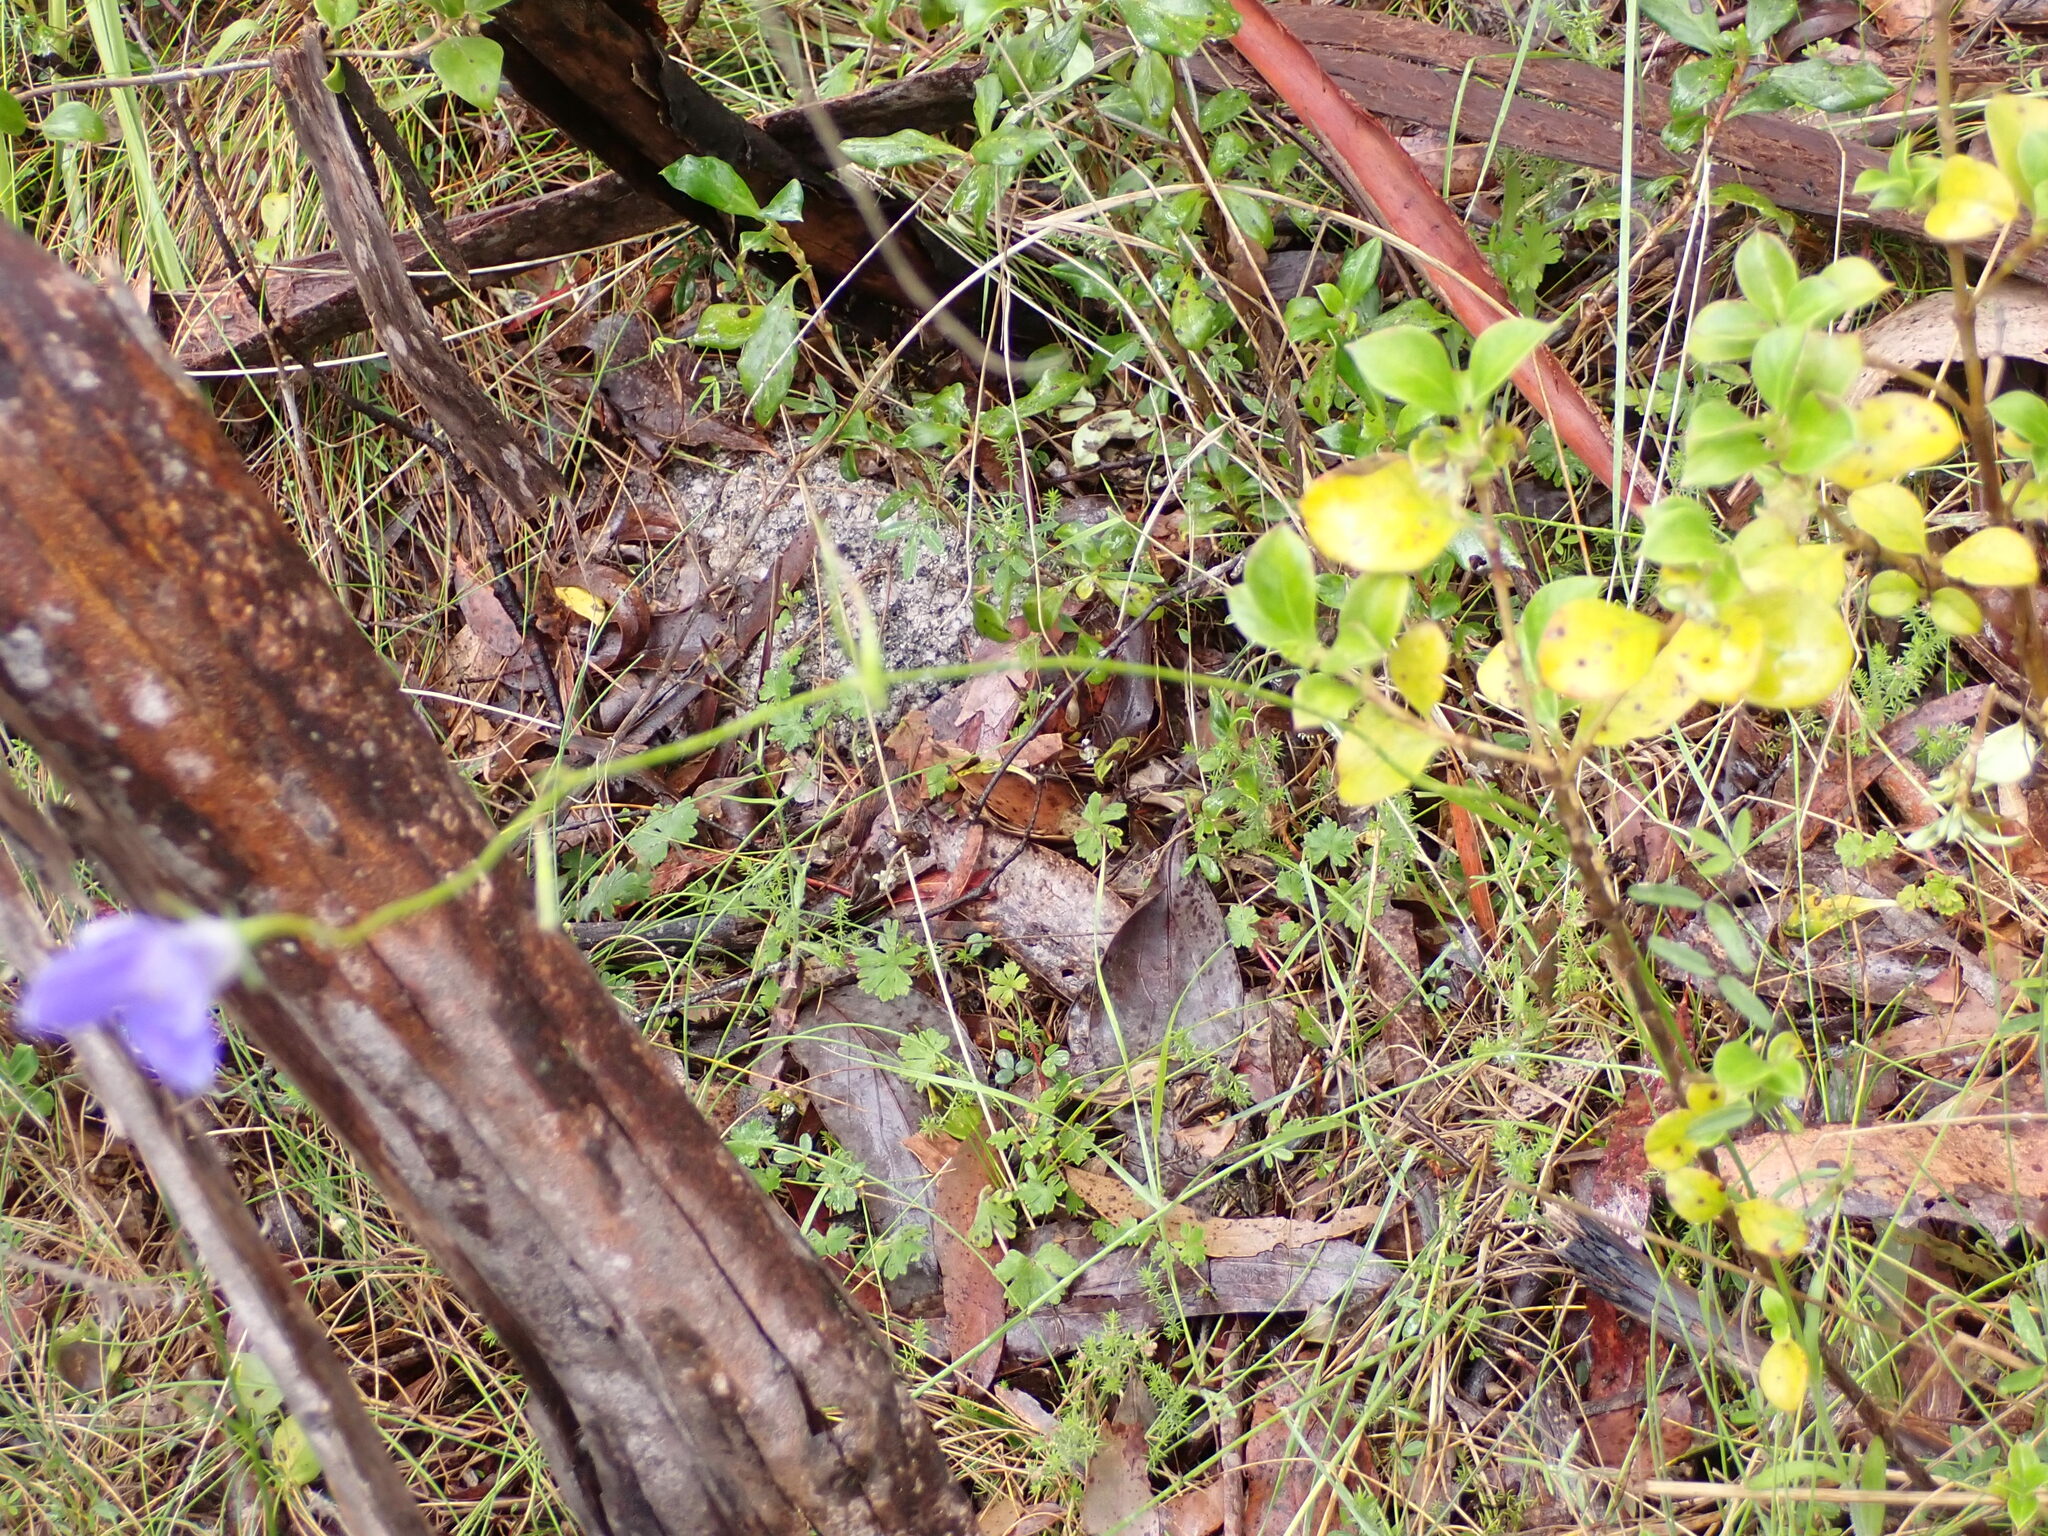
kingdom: Plantae
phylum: Tracheophyta
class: Magnoliopsida
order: Asterales
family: Campanulaceae
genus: Wahlenbergia
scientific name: Wahlenbergia stricta
